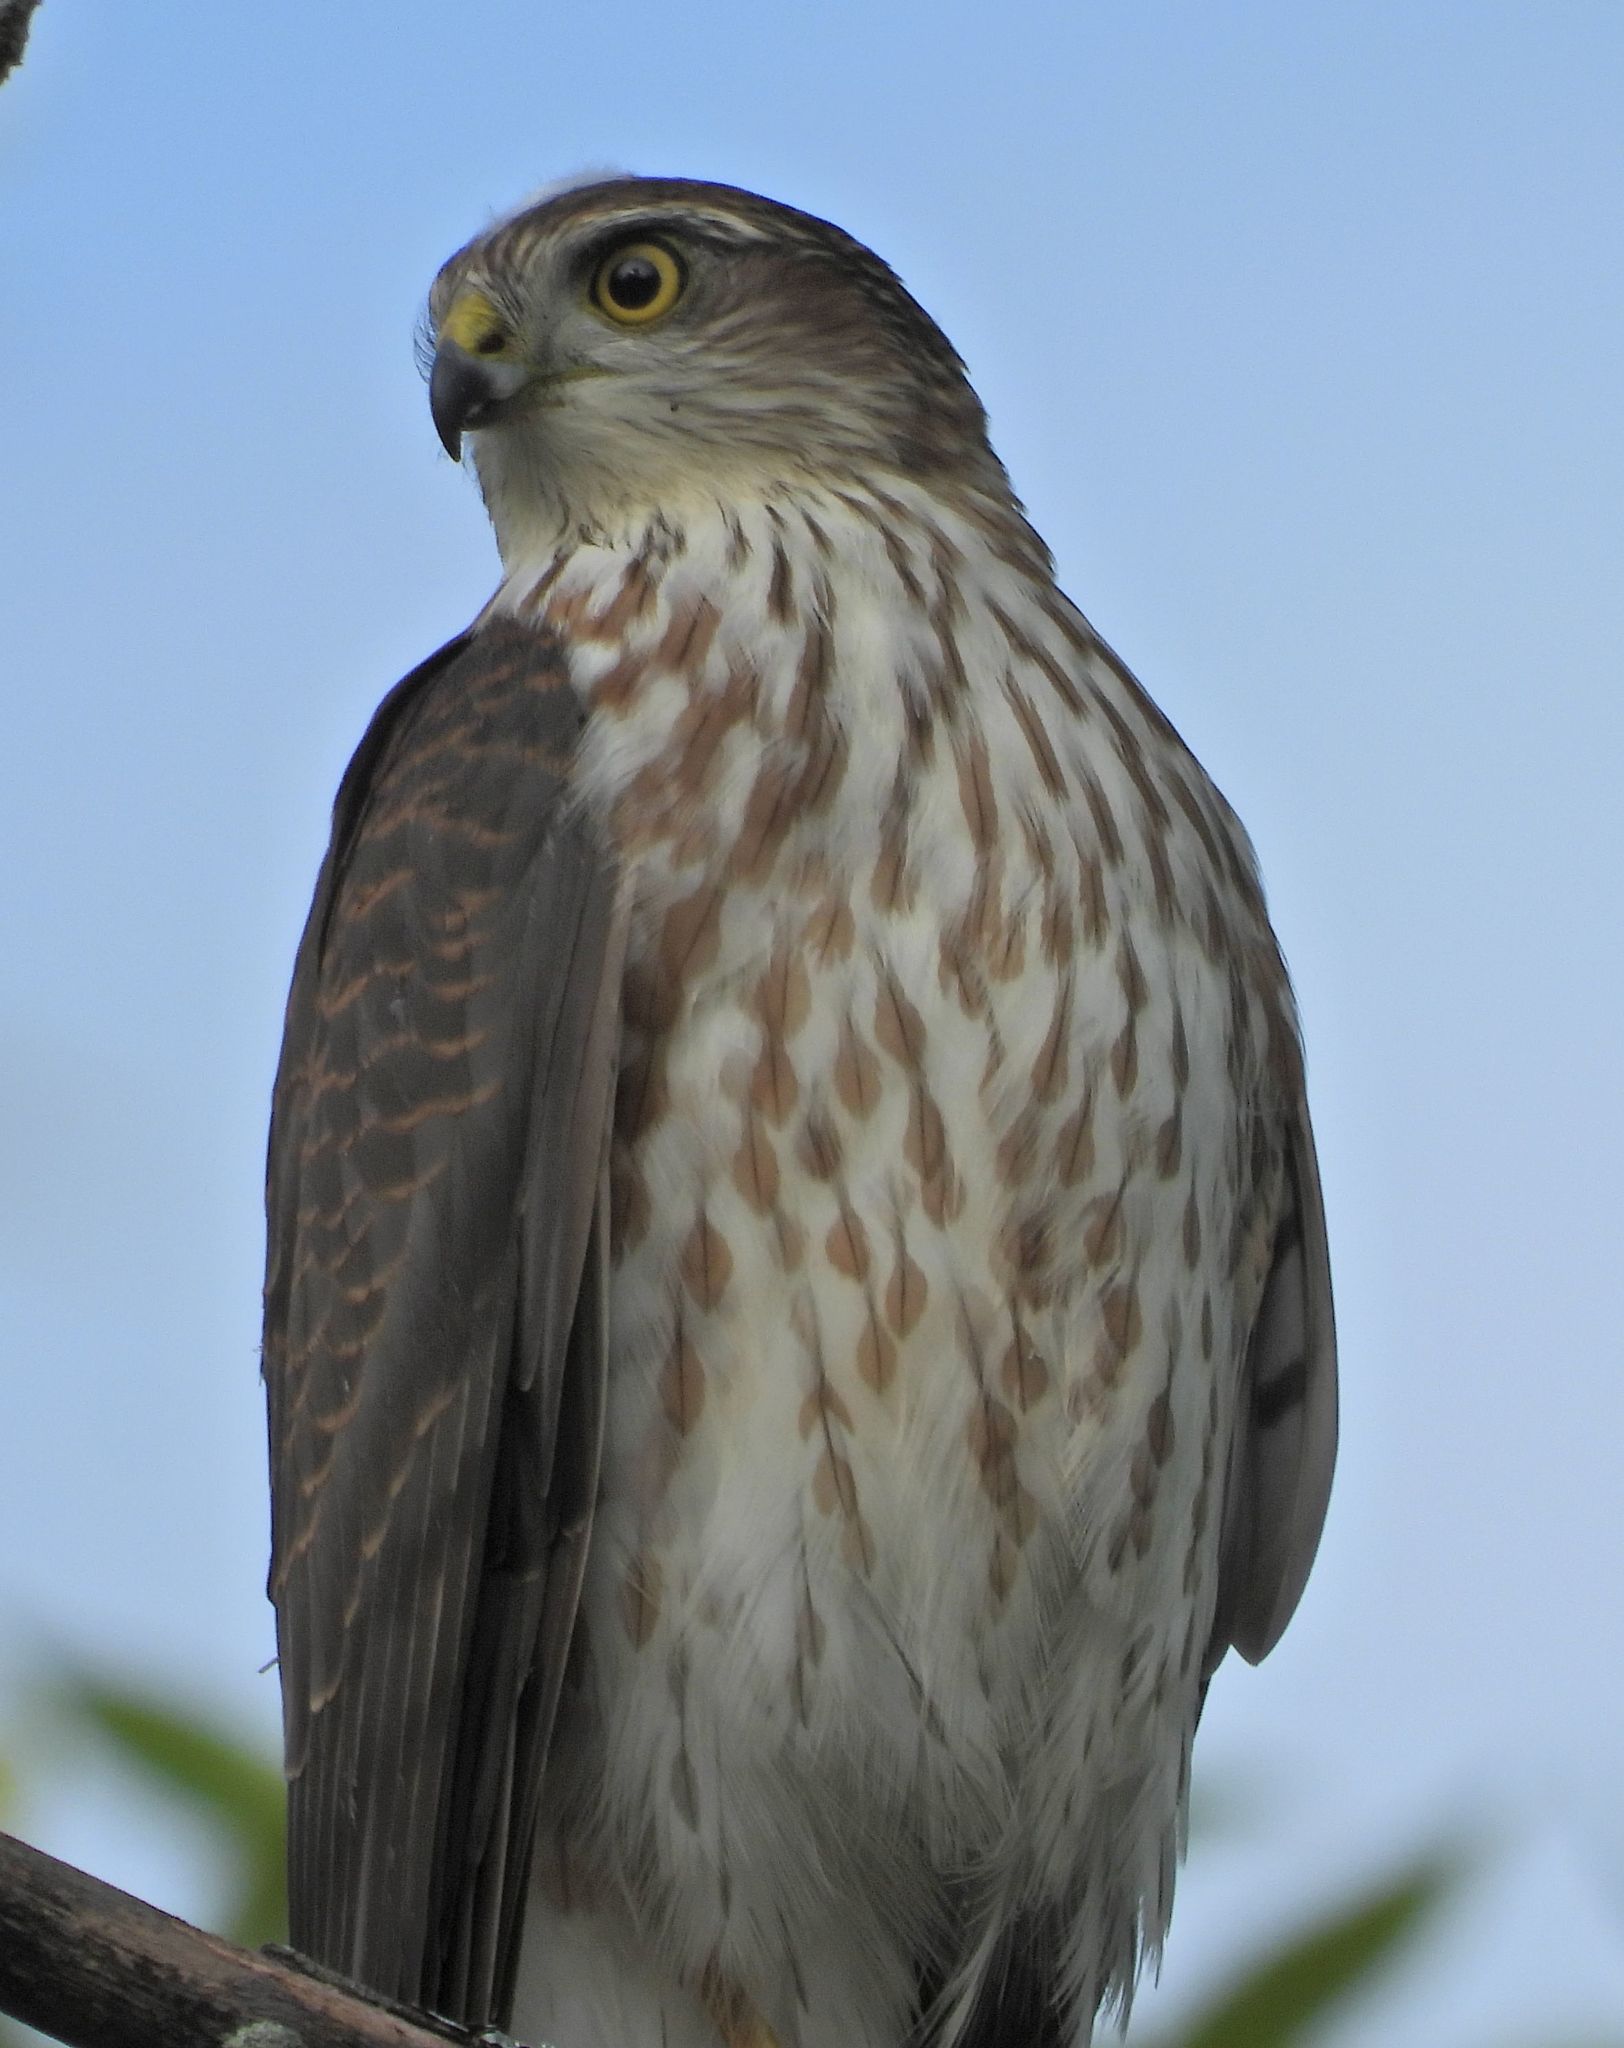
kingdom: Animalia
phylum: Chordata
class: Aves
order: Accipitriformes
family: Accipitridae
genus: Accipiter
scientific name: Accipiter striatus
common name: Sharp-shinned hawk
